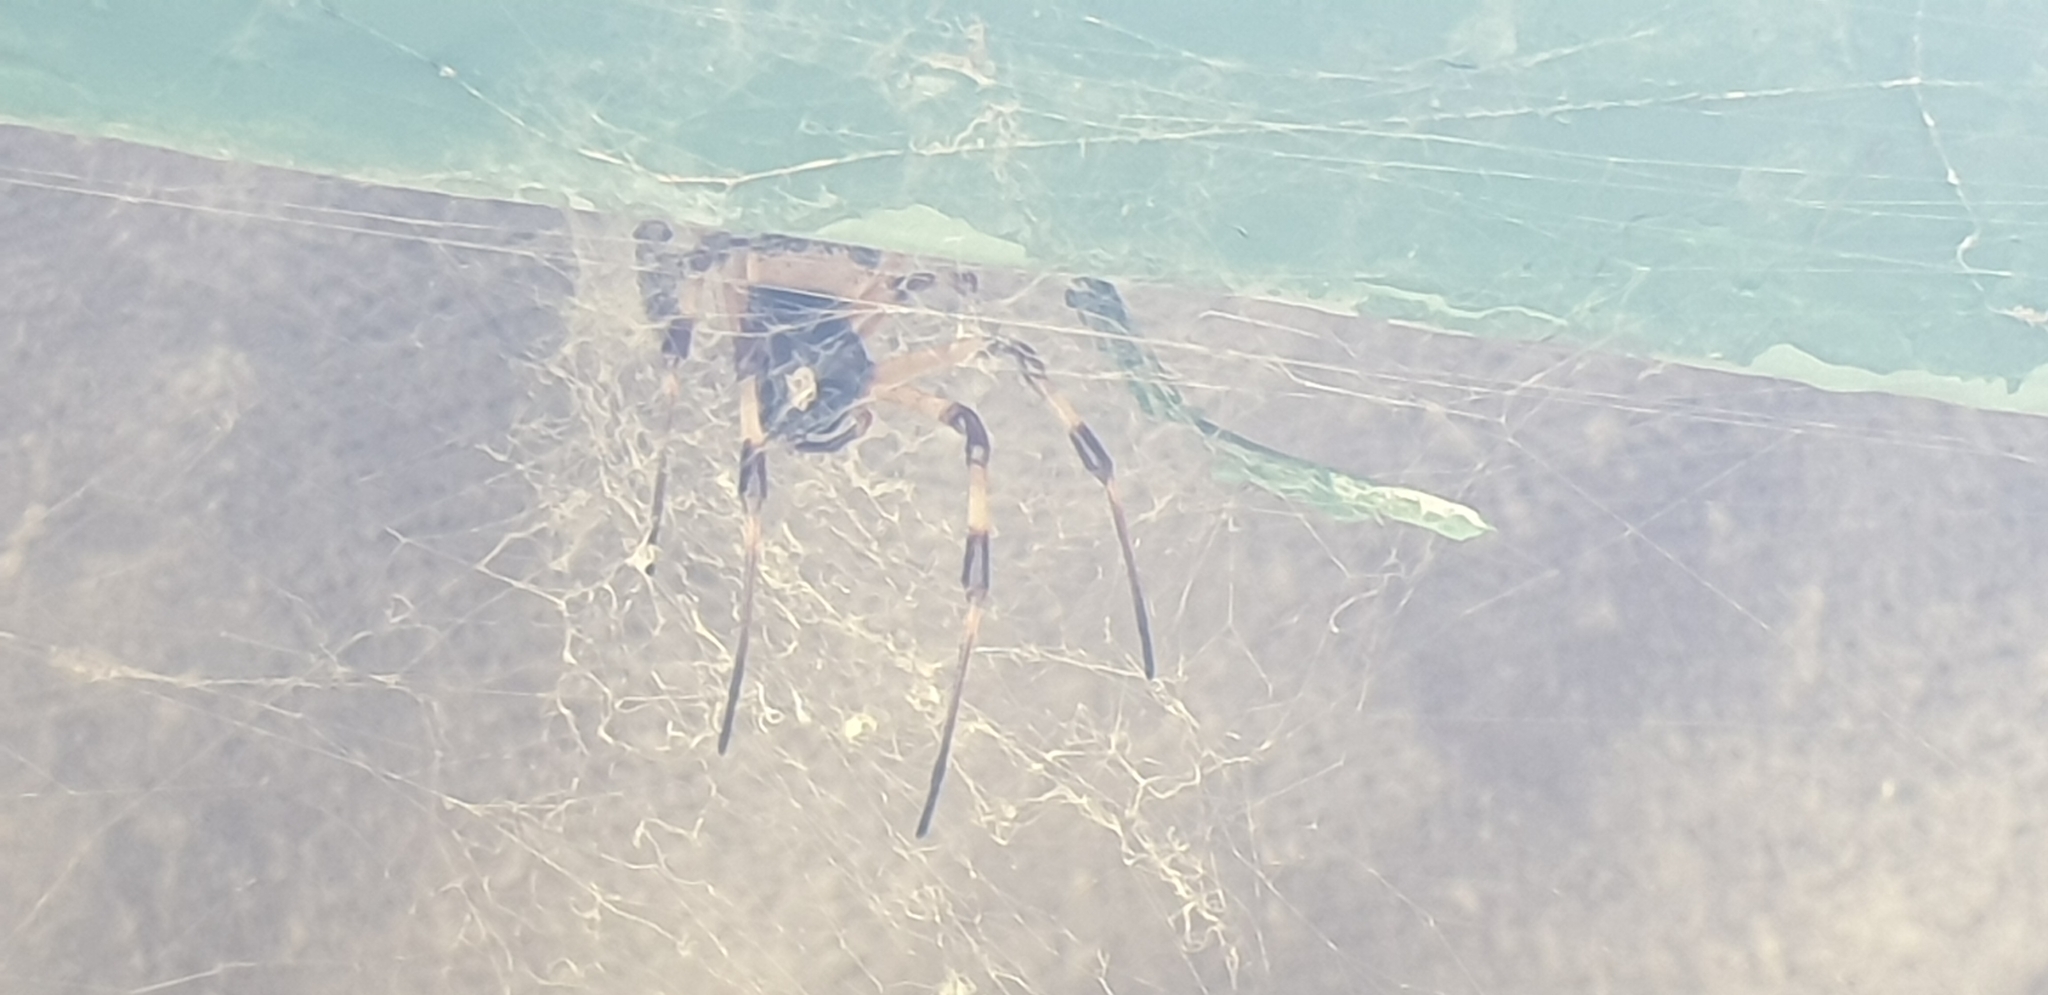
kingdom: Animalia
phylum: Arthropoda
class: Arachnida
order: Araneae
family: Araneidae
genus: Nephilingis
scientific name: Nephilingis cruentata
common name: African hermit spider
